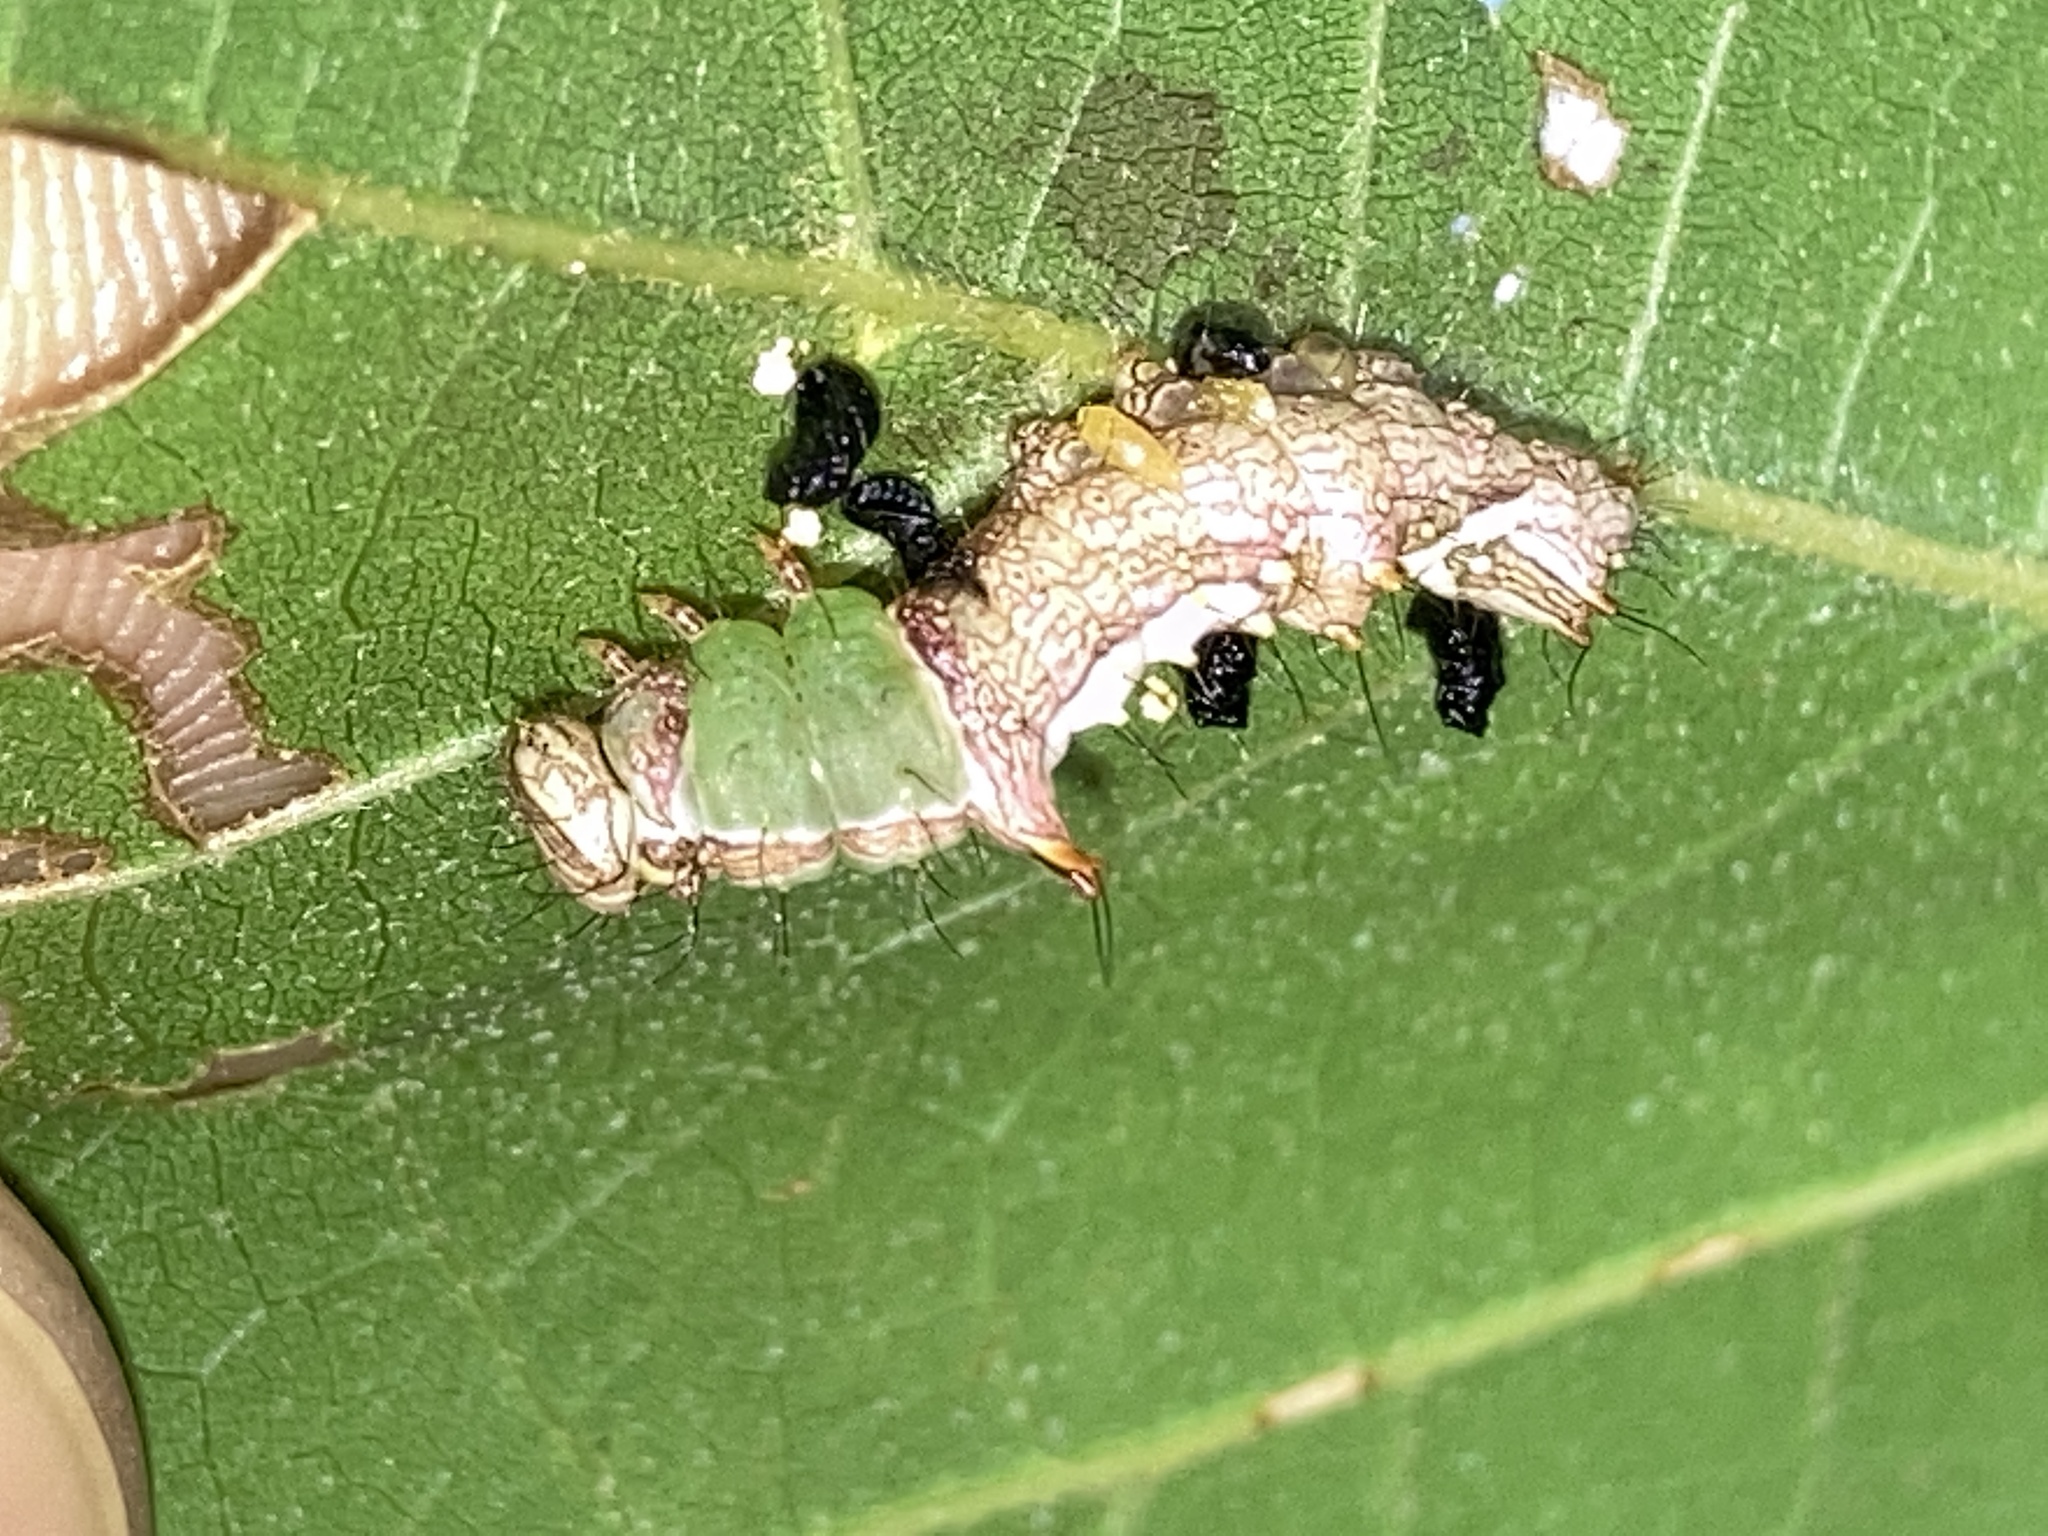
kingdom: Animalia
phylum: Arthropoda
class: Insecta
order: Lepidoptera
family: Notodontidae
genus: Schizura
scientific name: Schizura ipomaeae
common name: Morning-glory prominent
